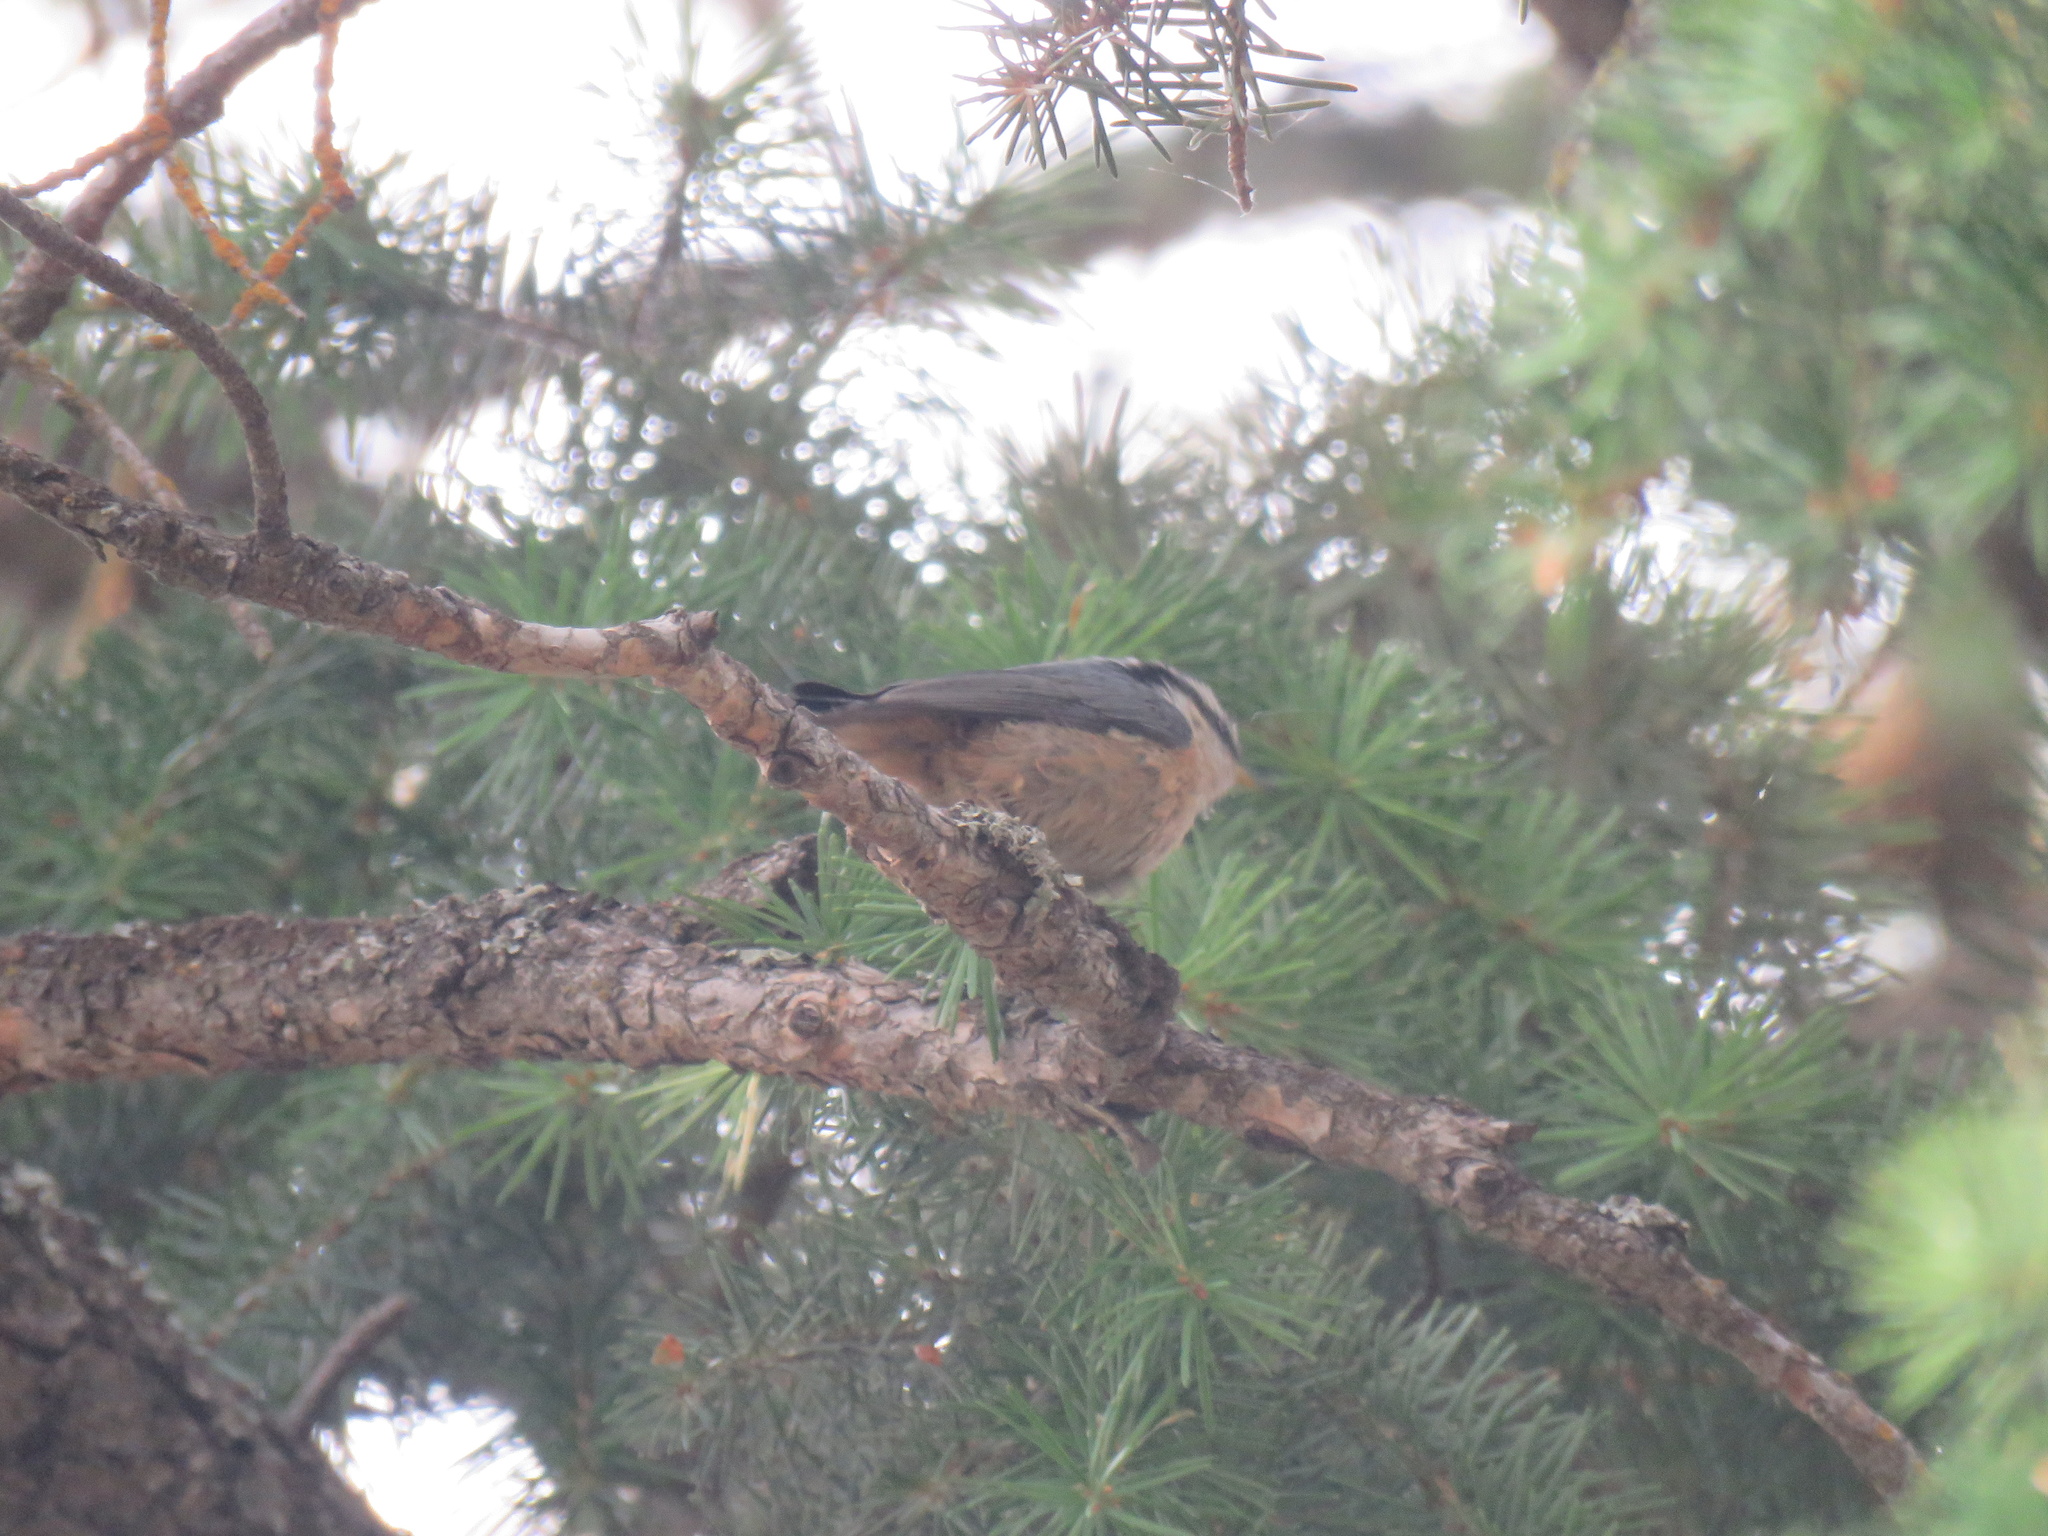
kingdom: Animalia
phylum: Chordata
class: Aves
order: Passeriformes
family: Sittidae
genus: Sitta
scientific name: Sitta canadensis
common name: Red-breasted nuthatch
